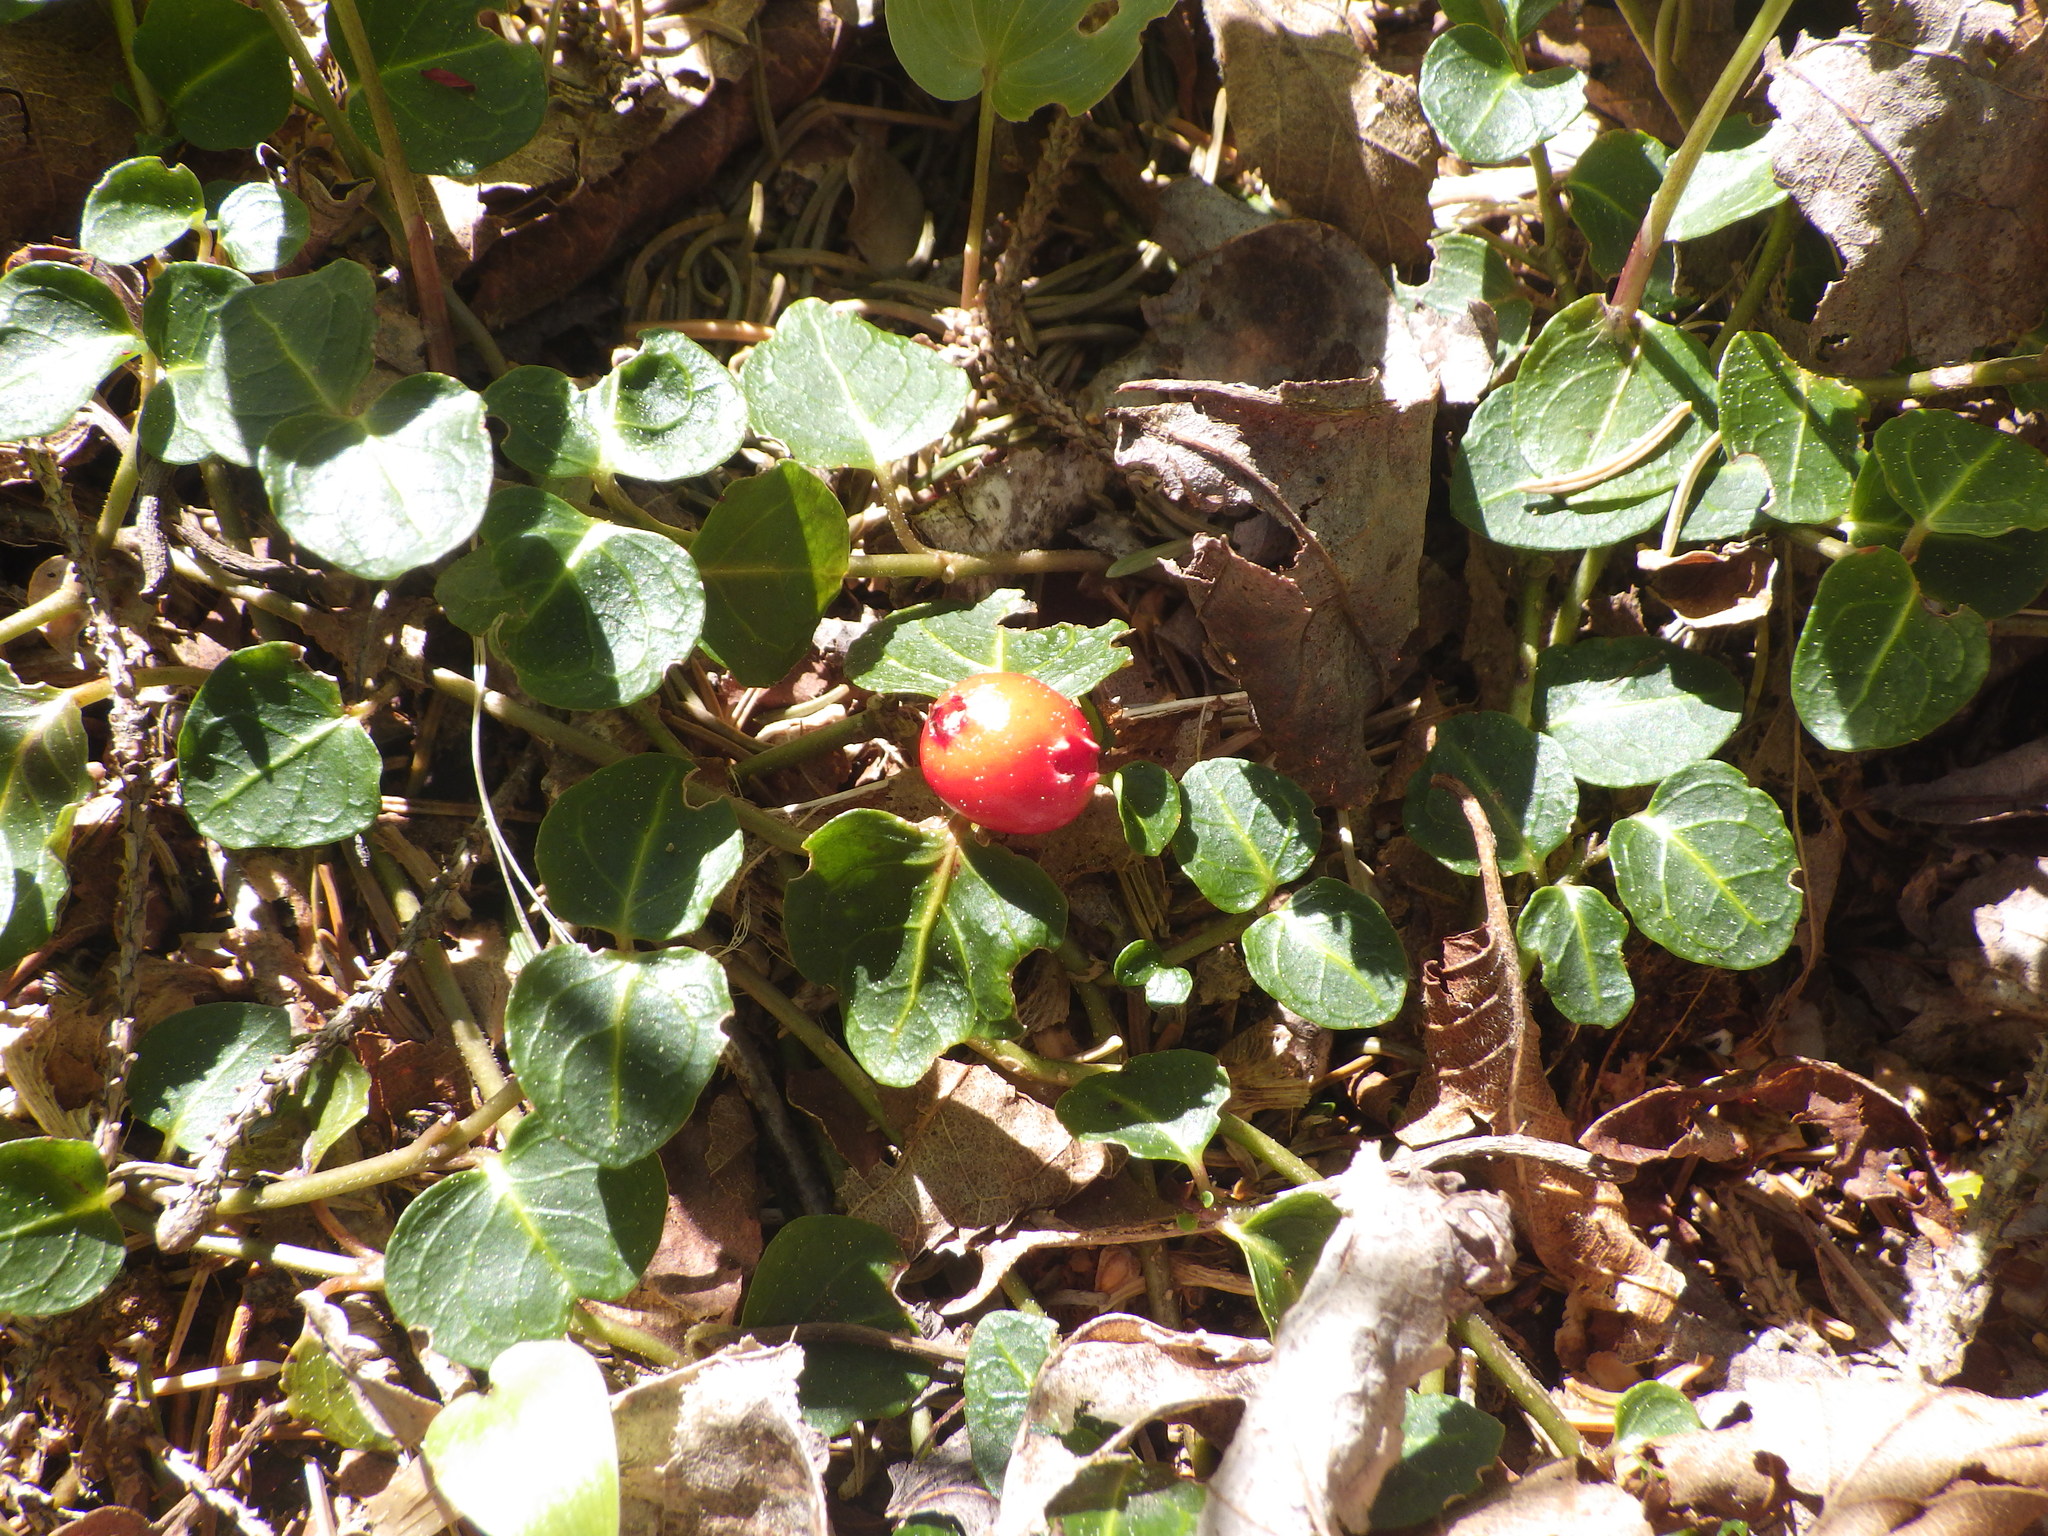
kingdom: Plantae
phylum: Tracheophyta
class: Magnoliopsida
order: Gentianales
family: Rubiaceae
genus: Mitchella
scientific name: Mitchella repens
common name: Partridge-berry
